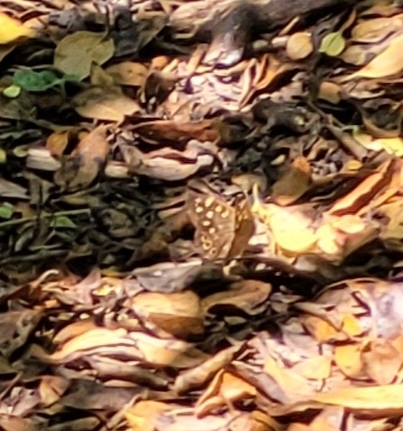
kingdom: Animalia
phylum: Arthropoda
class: Insecta
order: Lepidoptera
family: Nymphalidae
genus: Pararge
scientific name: Pararge aegeria
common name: Speckled wood
